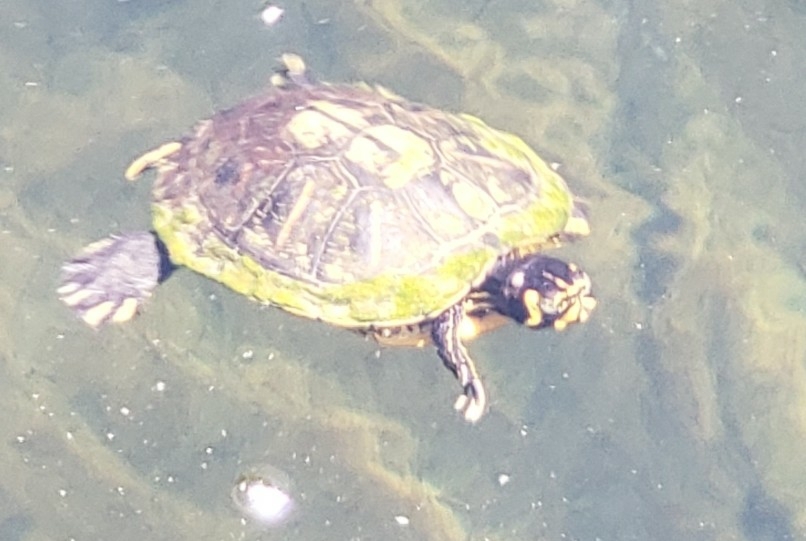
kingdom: Animalia
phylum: Chordata
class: Testudines
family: Emydidae
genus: Trachemys
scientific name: Trachemys scripta
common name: Slider
